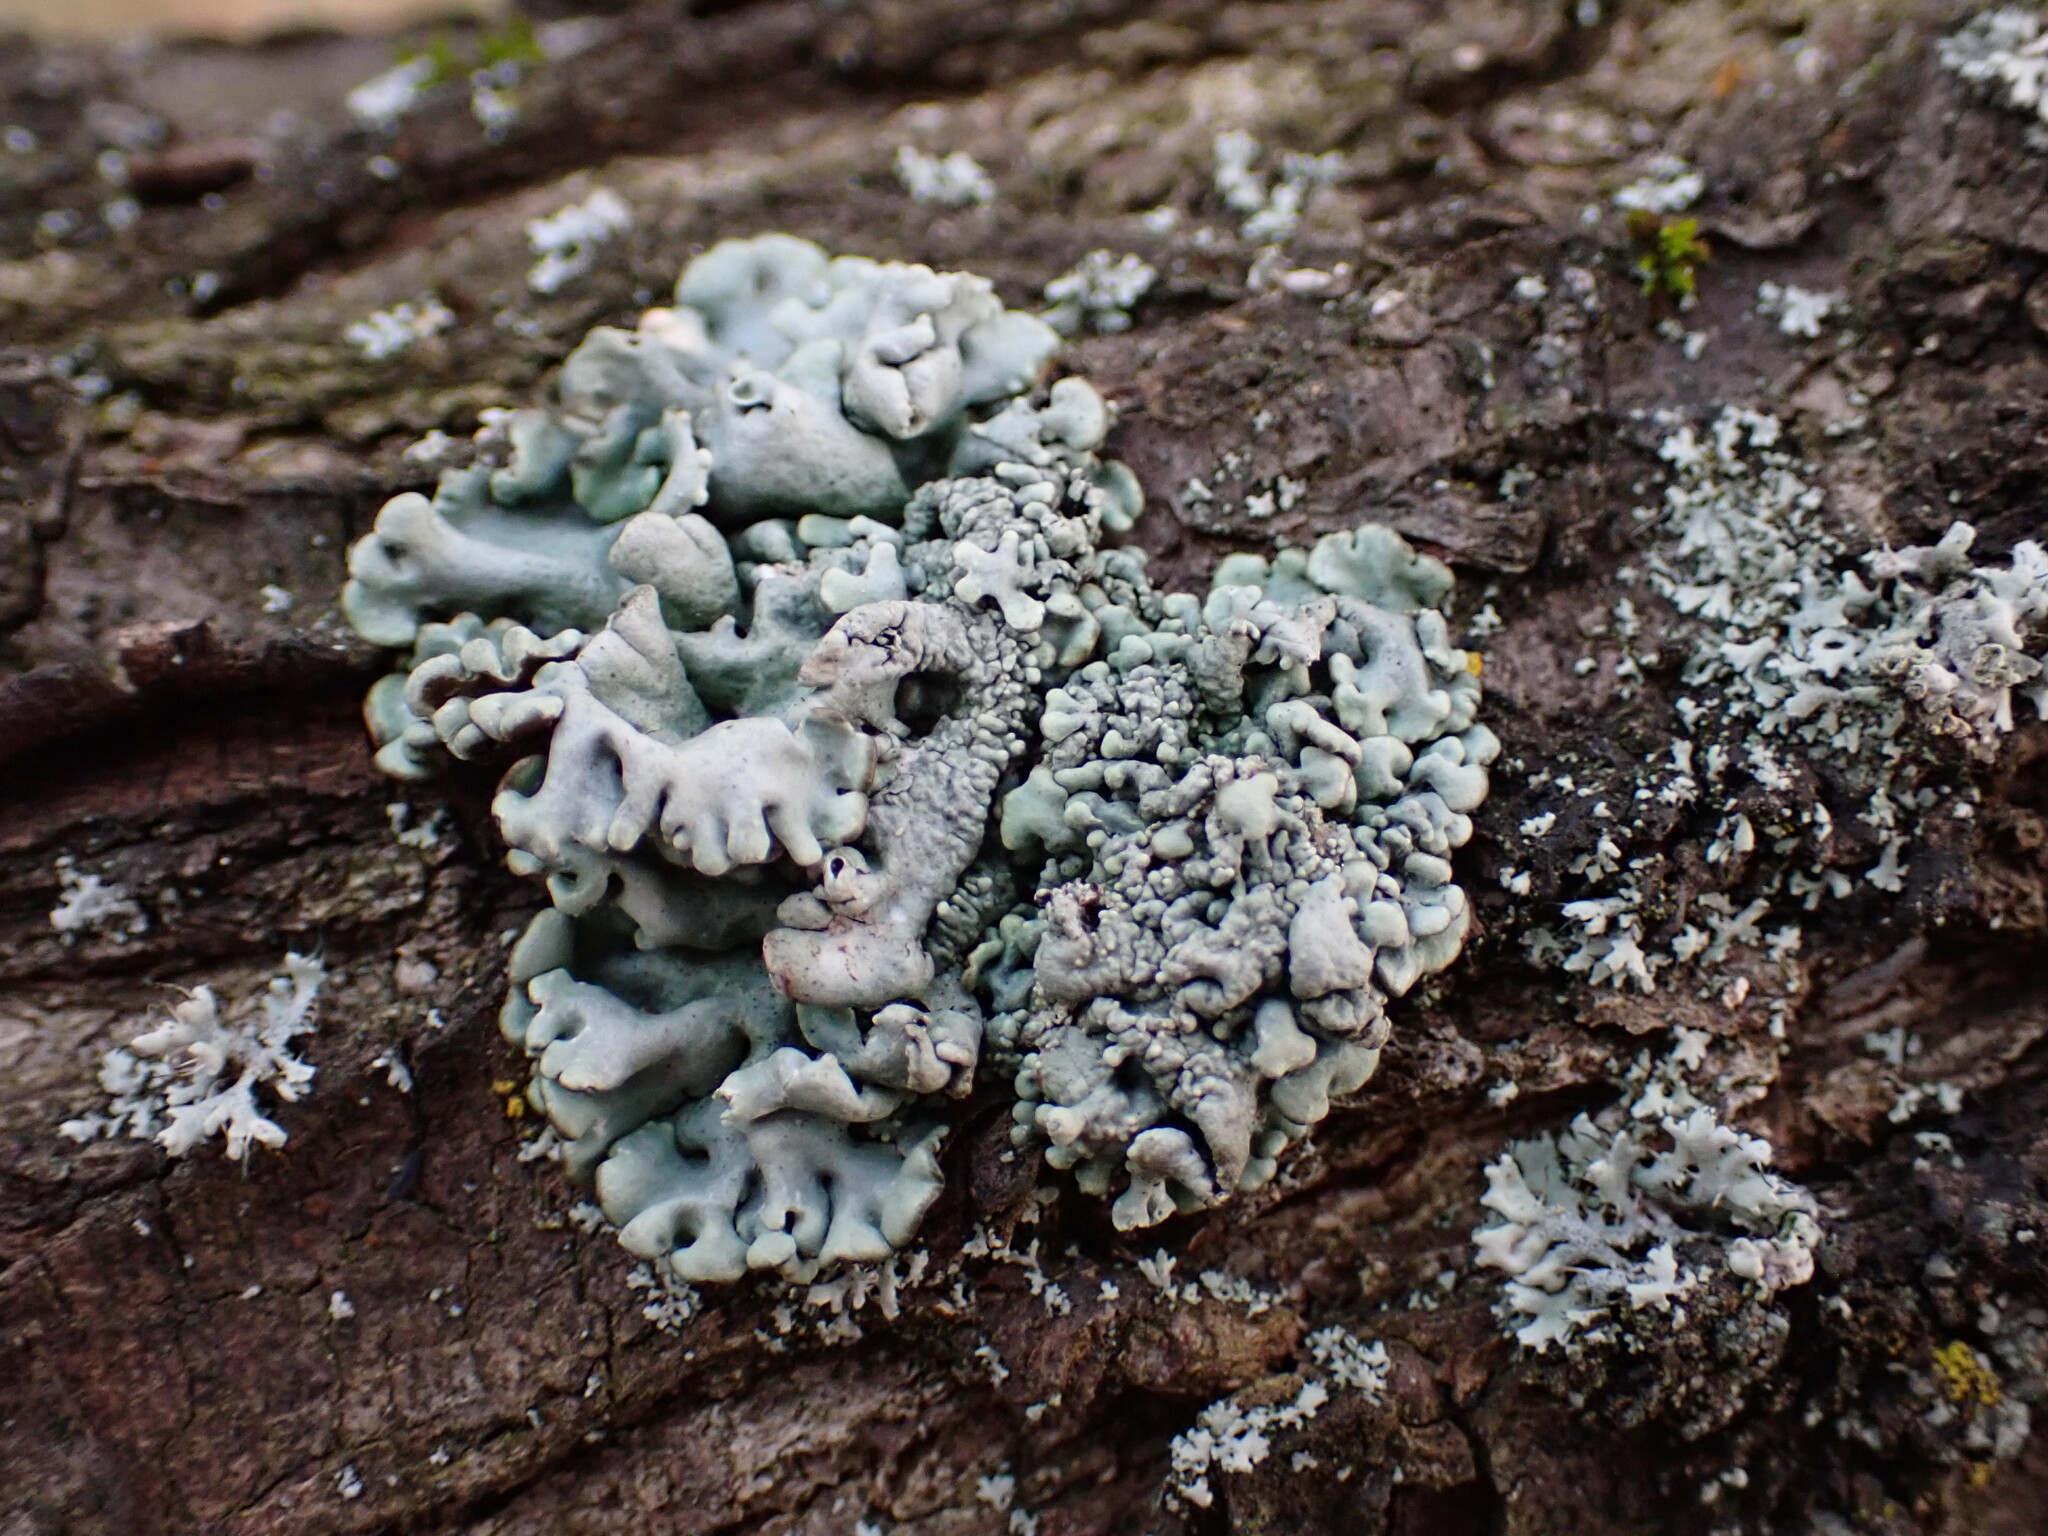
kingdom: Fungi
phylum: Ascomycota
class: Lecanoromycetes
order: Lecanorales
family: Parmeliaceae
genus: Hypogymnia
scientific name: Hypogymnia physodes
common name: Dark crottle
